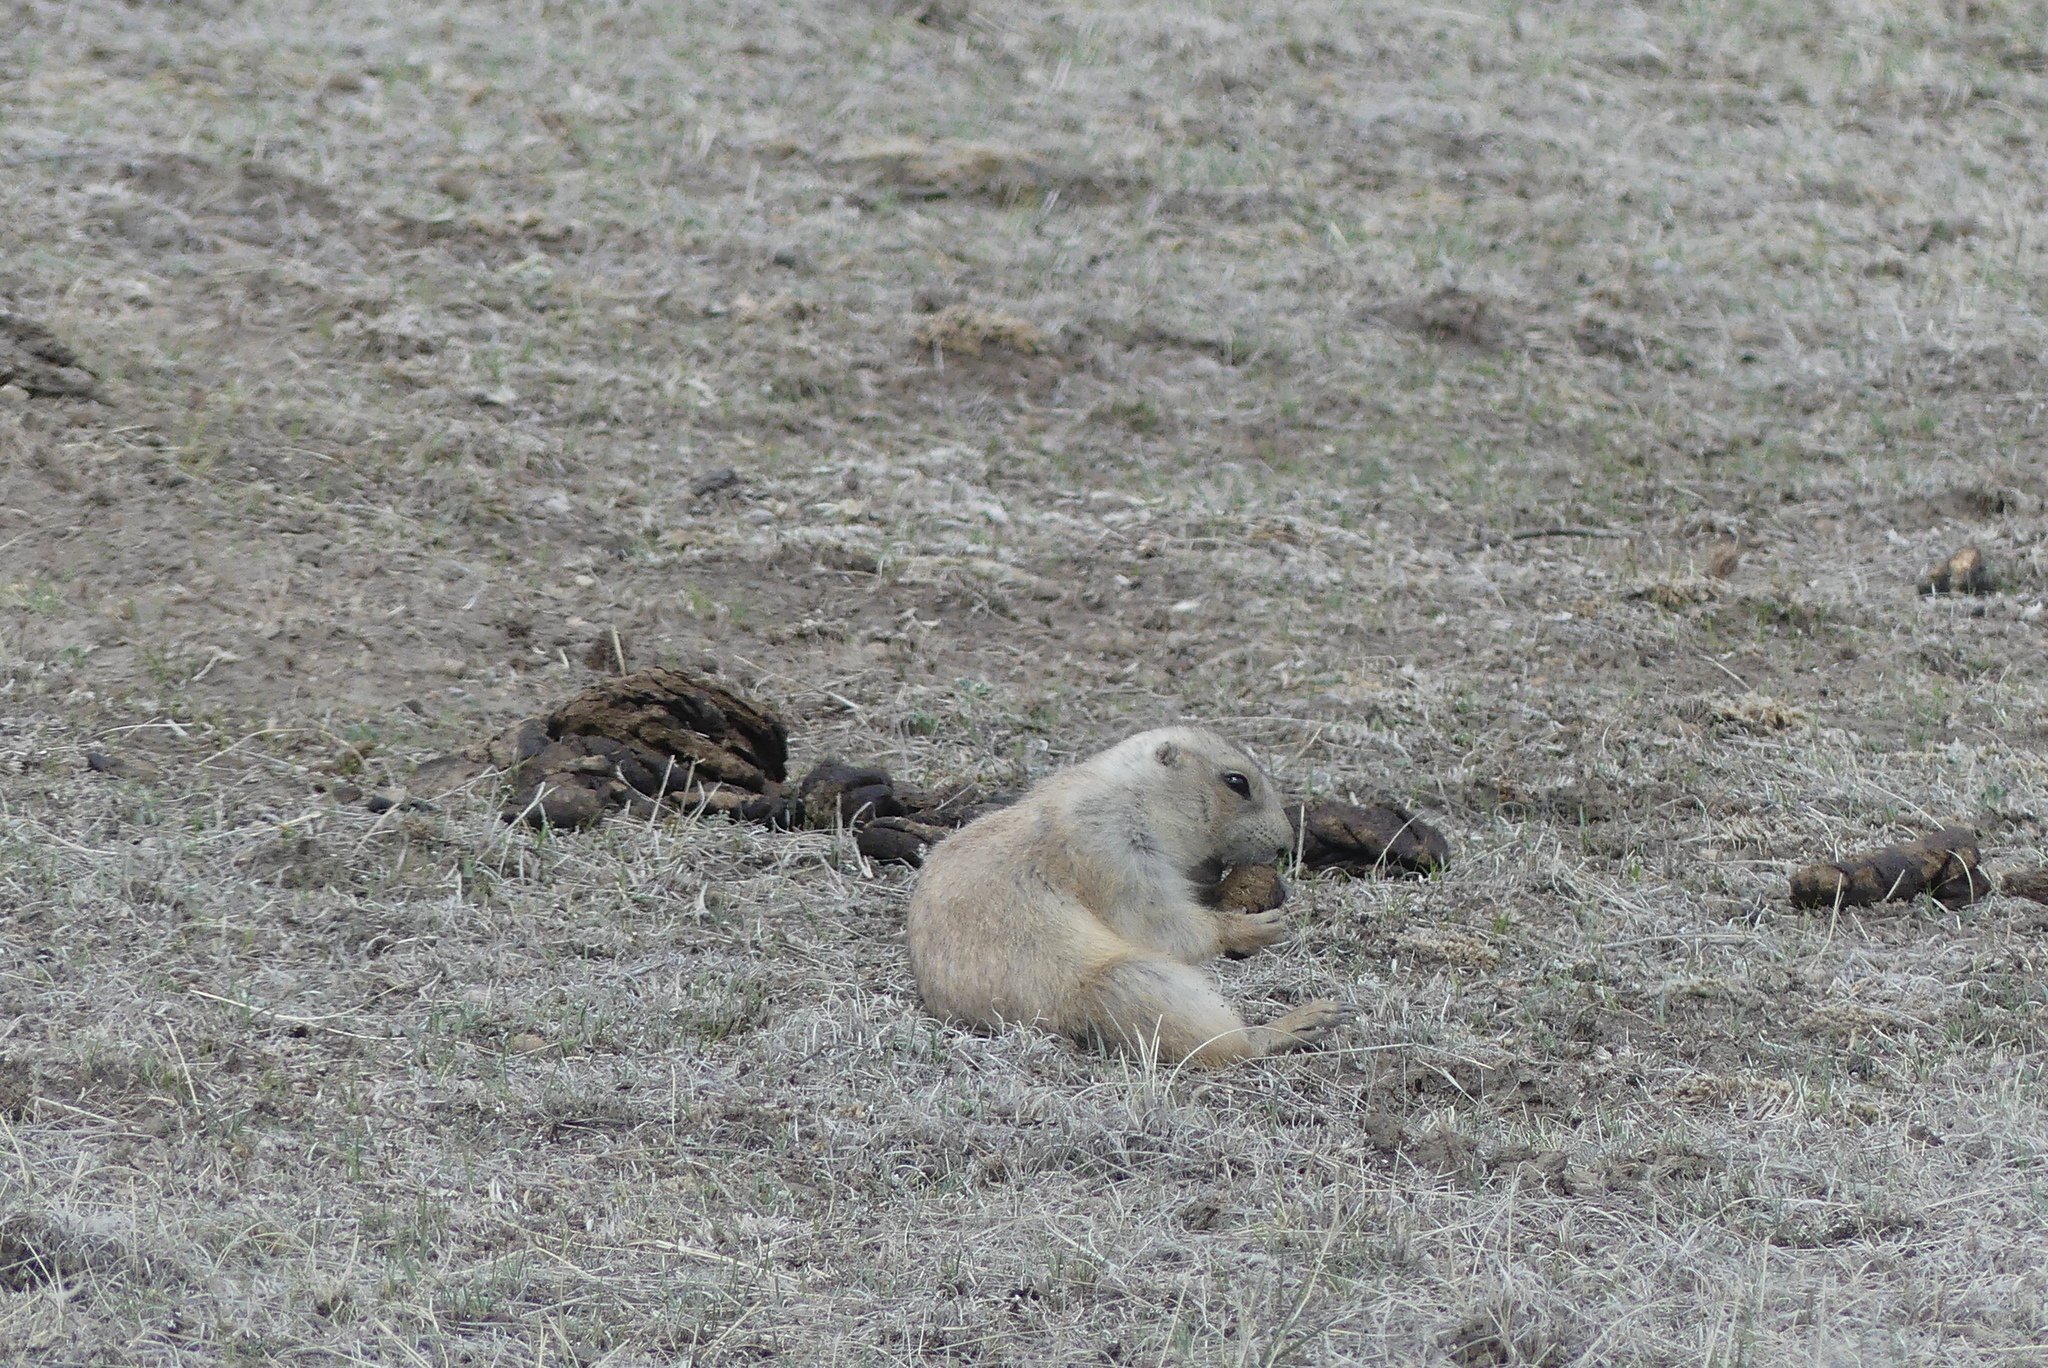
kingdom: Animalia
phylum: Chordata
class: Mammalia
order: Rodentia
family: Sciuridae
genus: Cynomys
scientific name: Cynomys ludovicianus
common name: Black-tailed prairie dog
